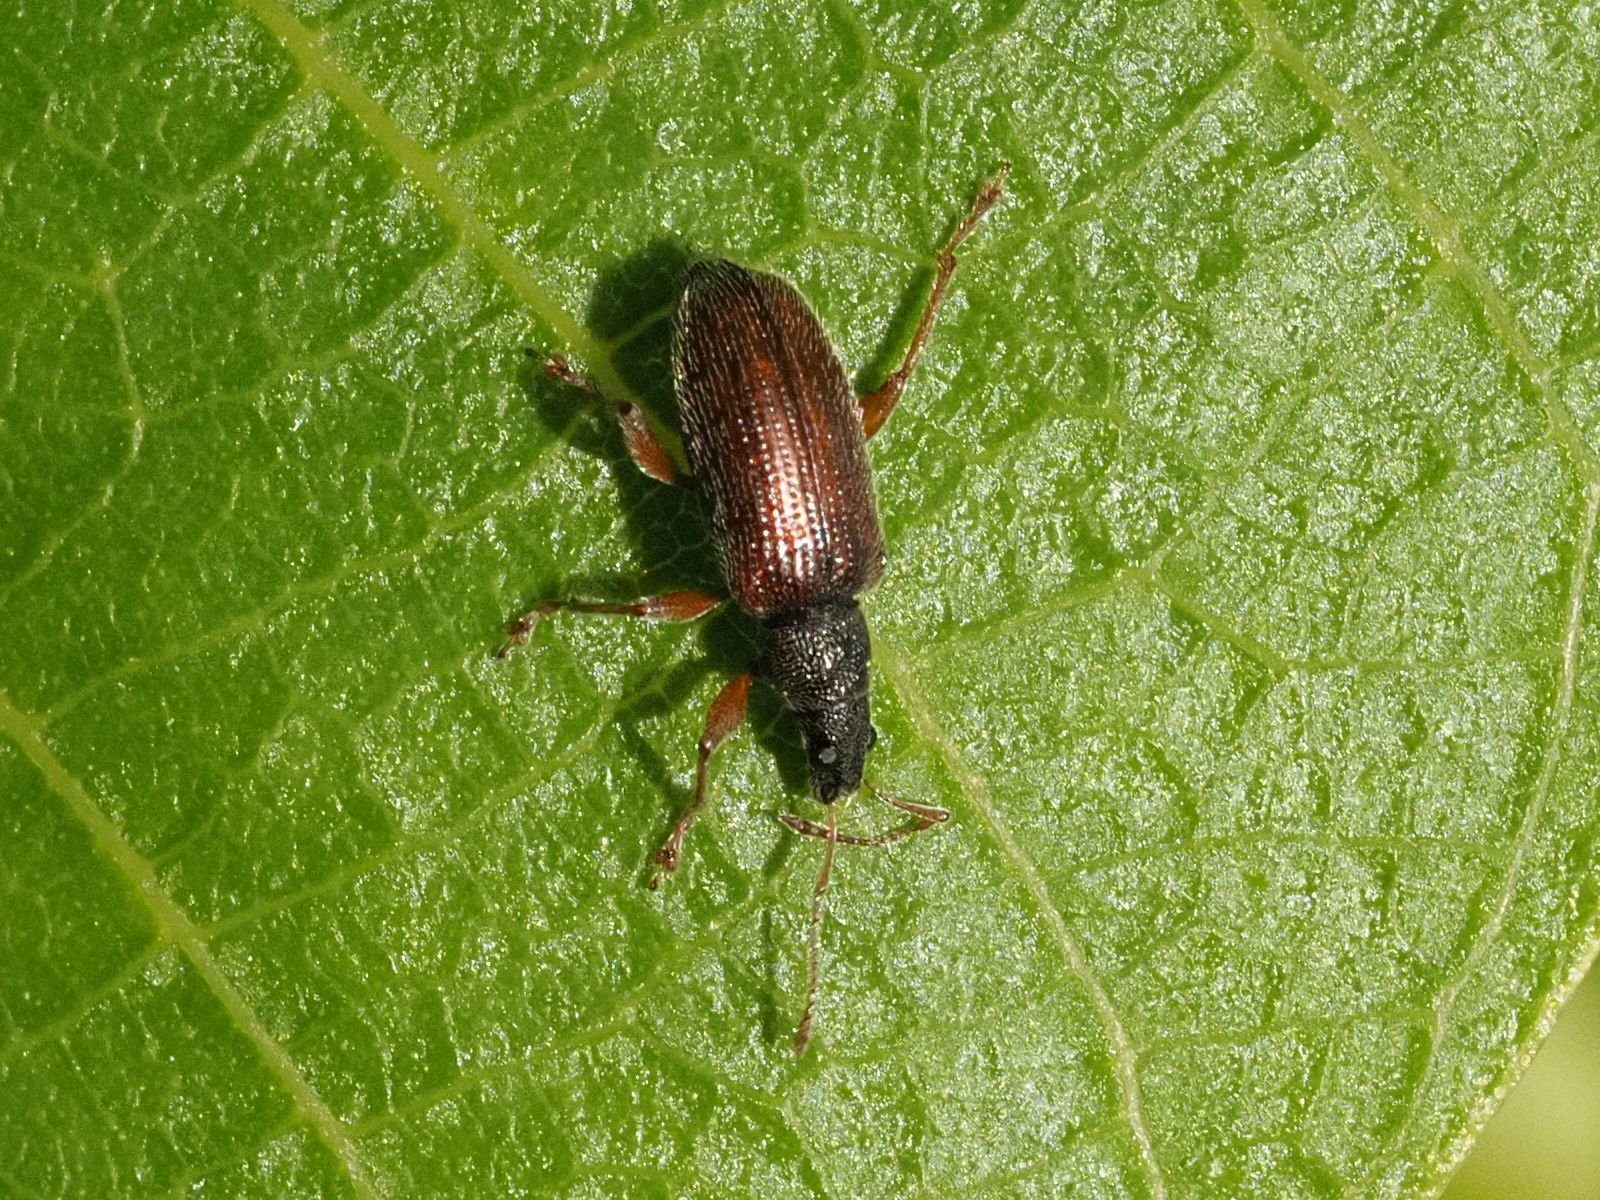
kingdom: Animalia
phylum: Arthropoda
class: Insecta
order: Coleoptera
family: Curculionidae
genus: Phyllobius
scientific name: Phyllobius oblongus
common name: Brown leaf weevil
